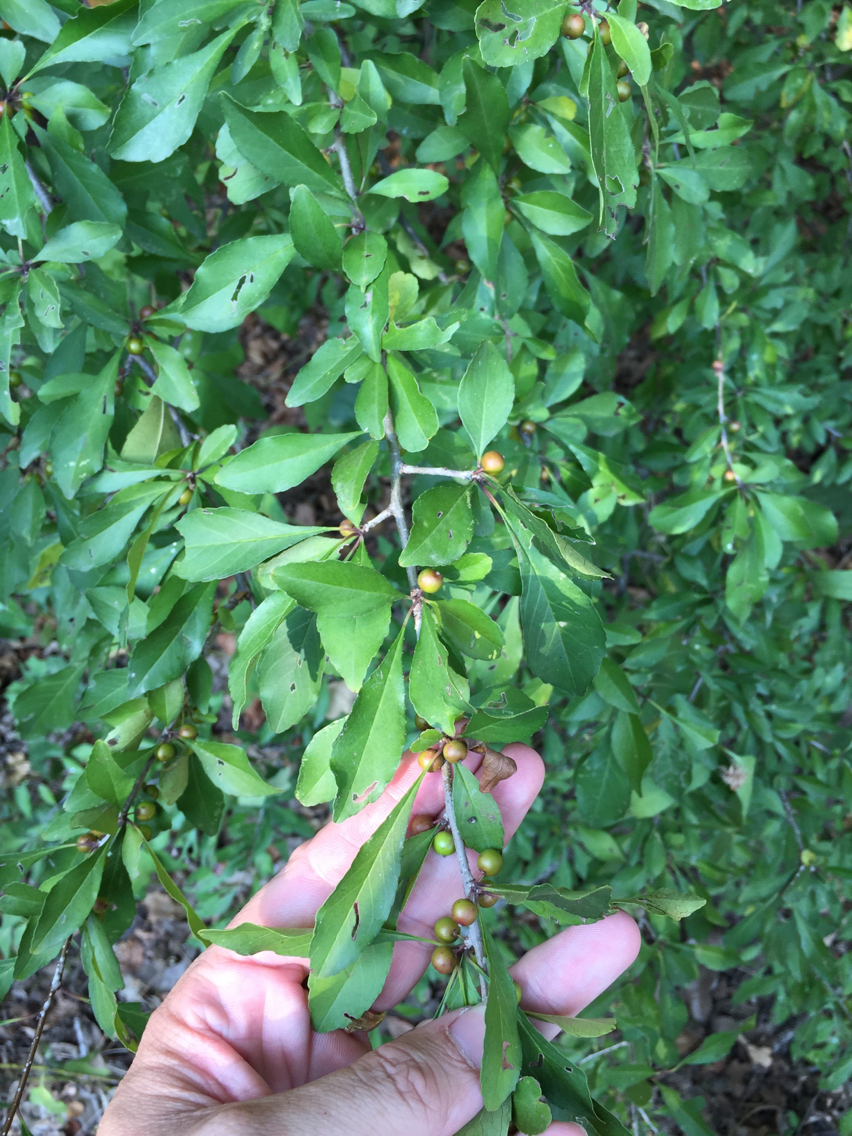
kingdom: Plantae
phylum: Tracheophyta
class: Magnoliopsida
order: Aquifoliales
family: Aquifoliaceae
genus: Ilex
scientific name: Ilex decidua
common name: Possum-haw
